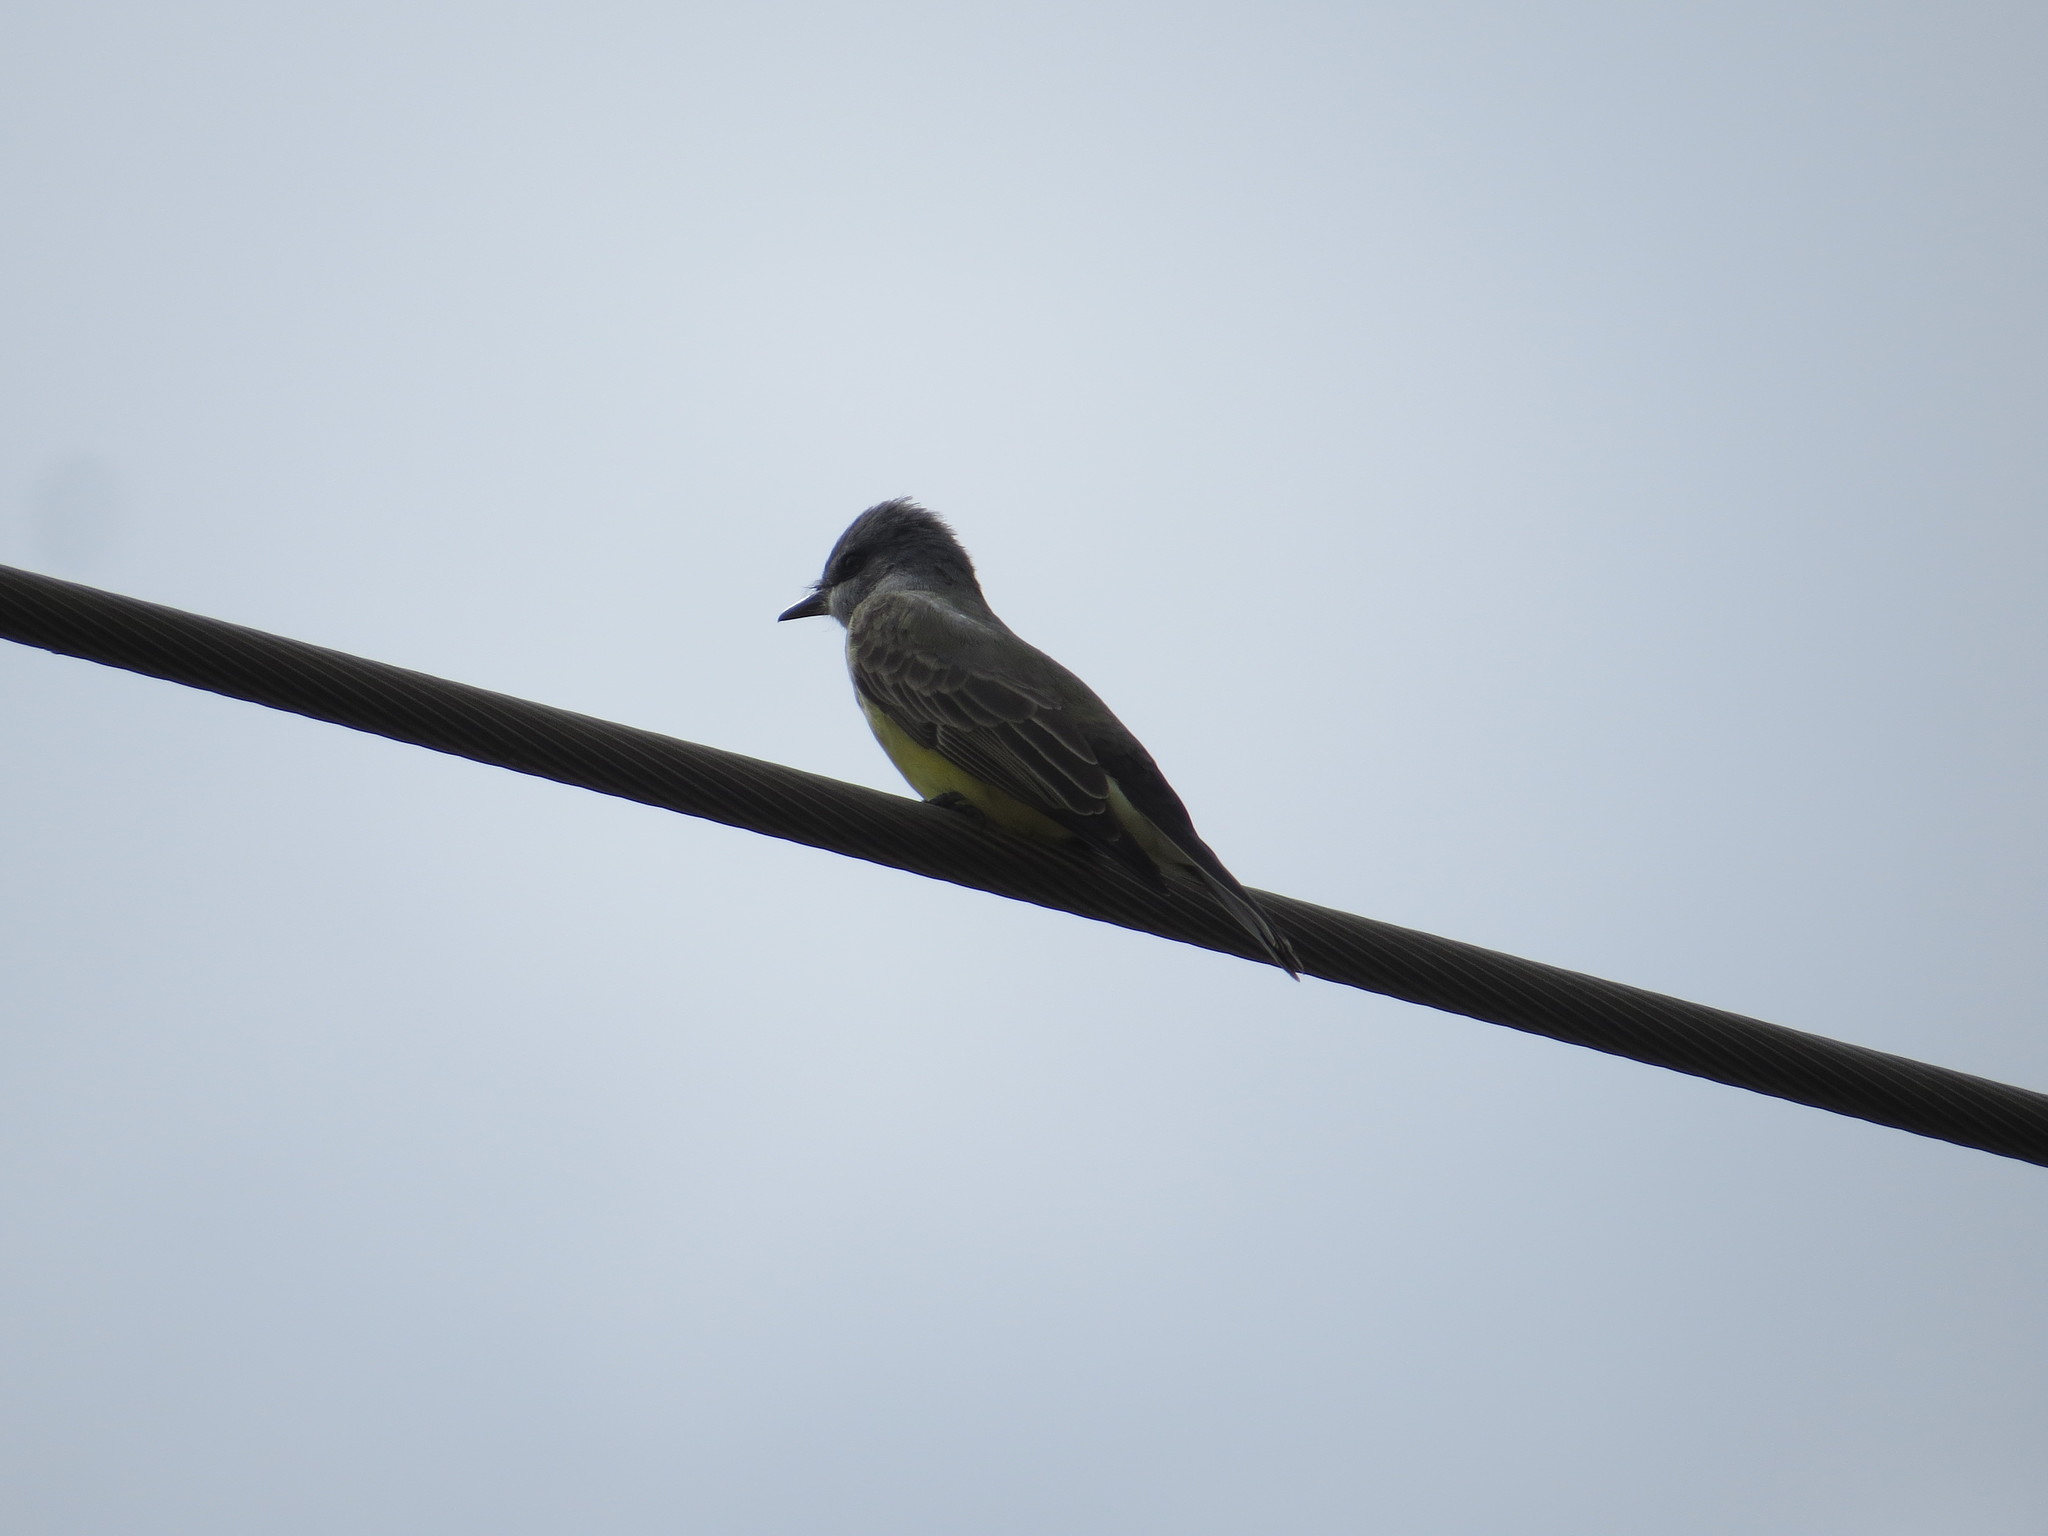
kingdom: Animalia
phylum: Chordata
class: Aves
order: Passeriformes
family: Tyrannidae
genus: Tyrannus
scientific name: Tyrannus vociferans
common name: Cassin's kingbird
